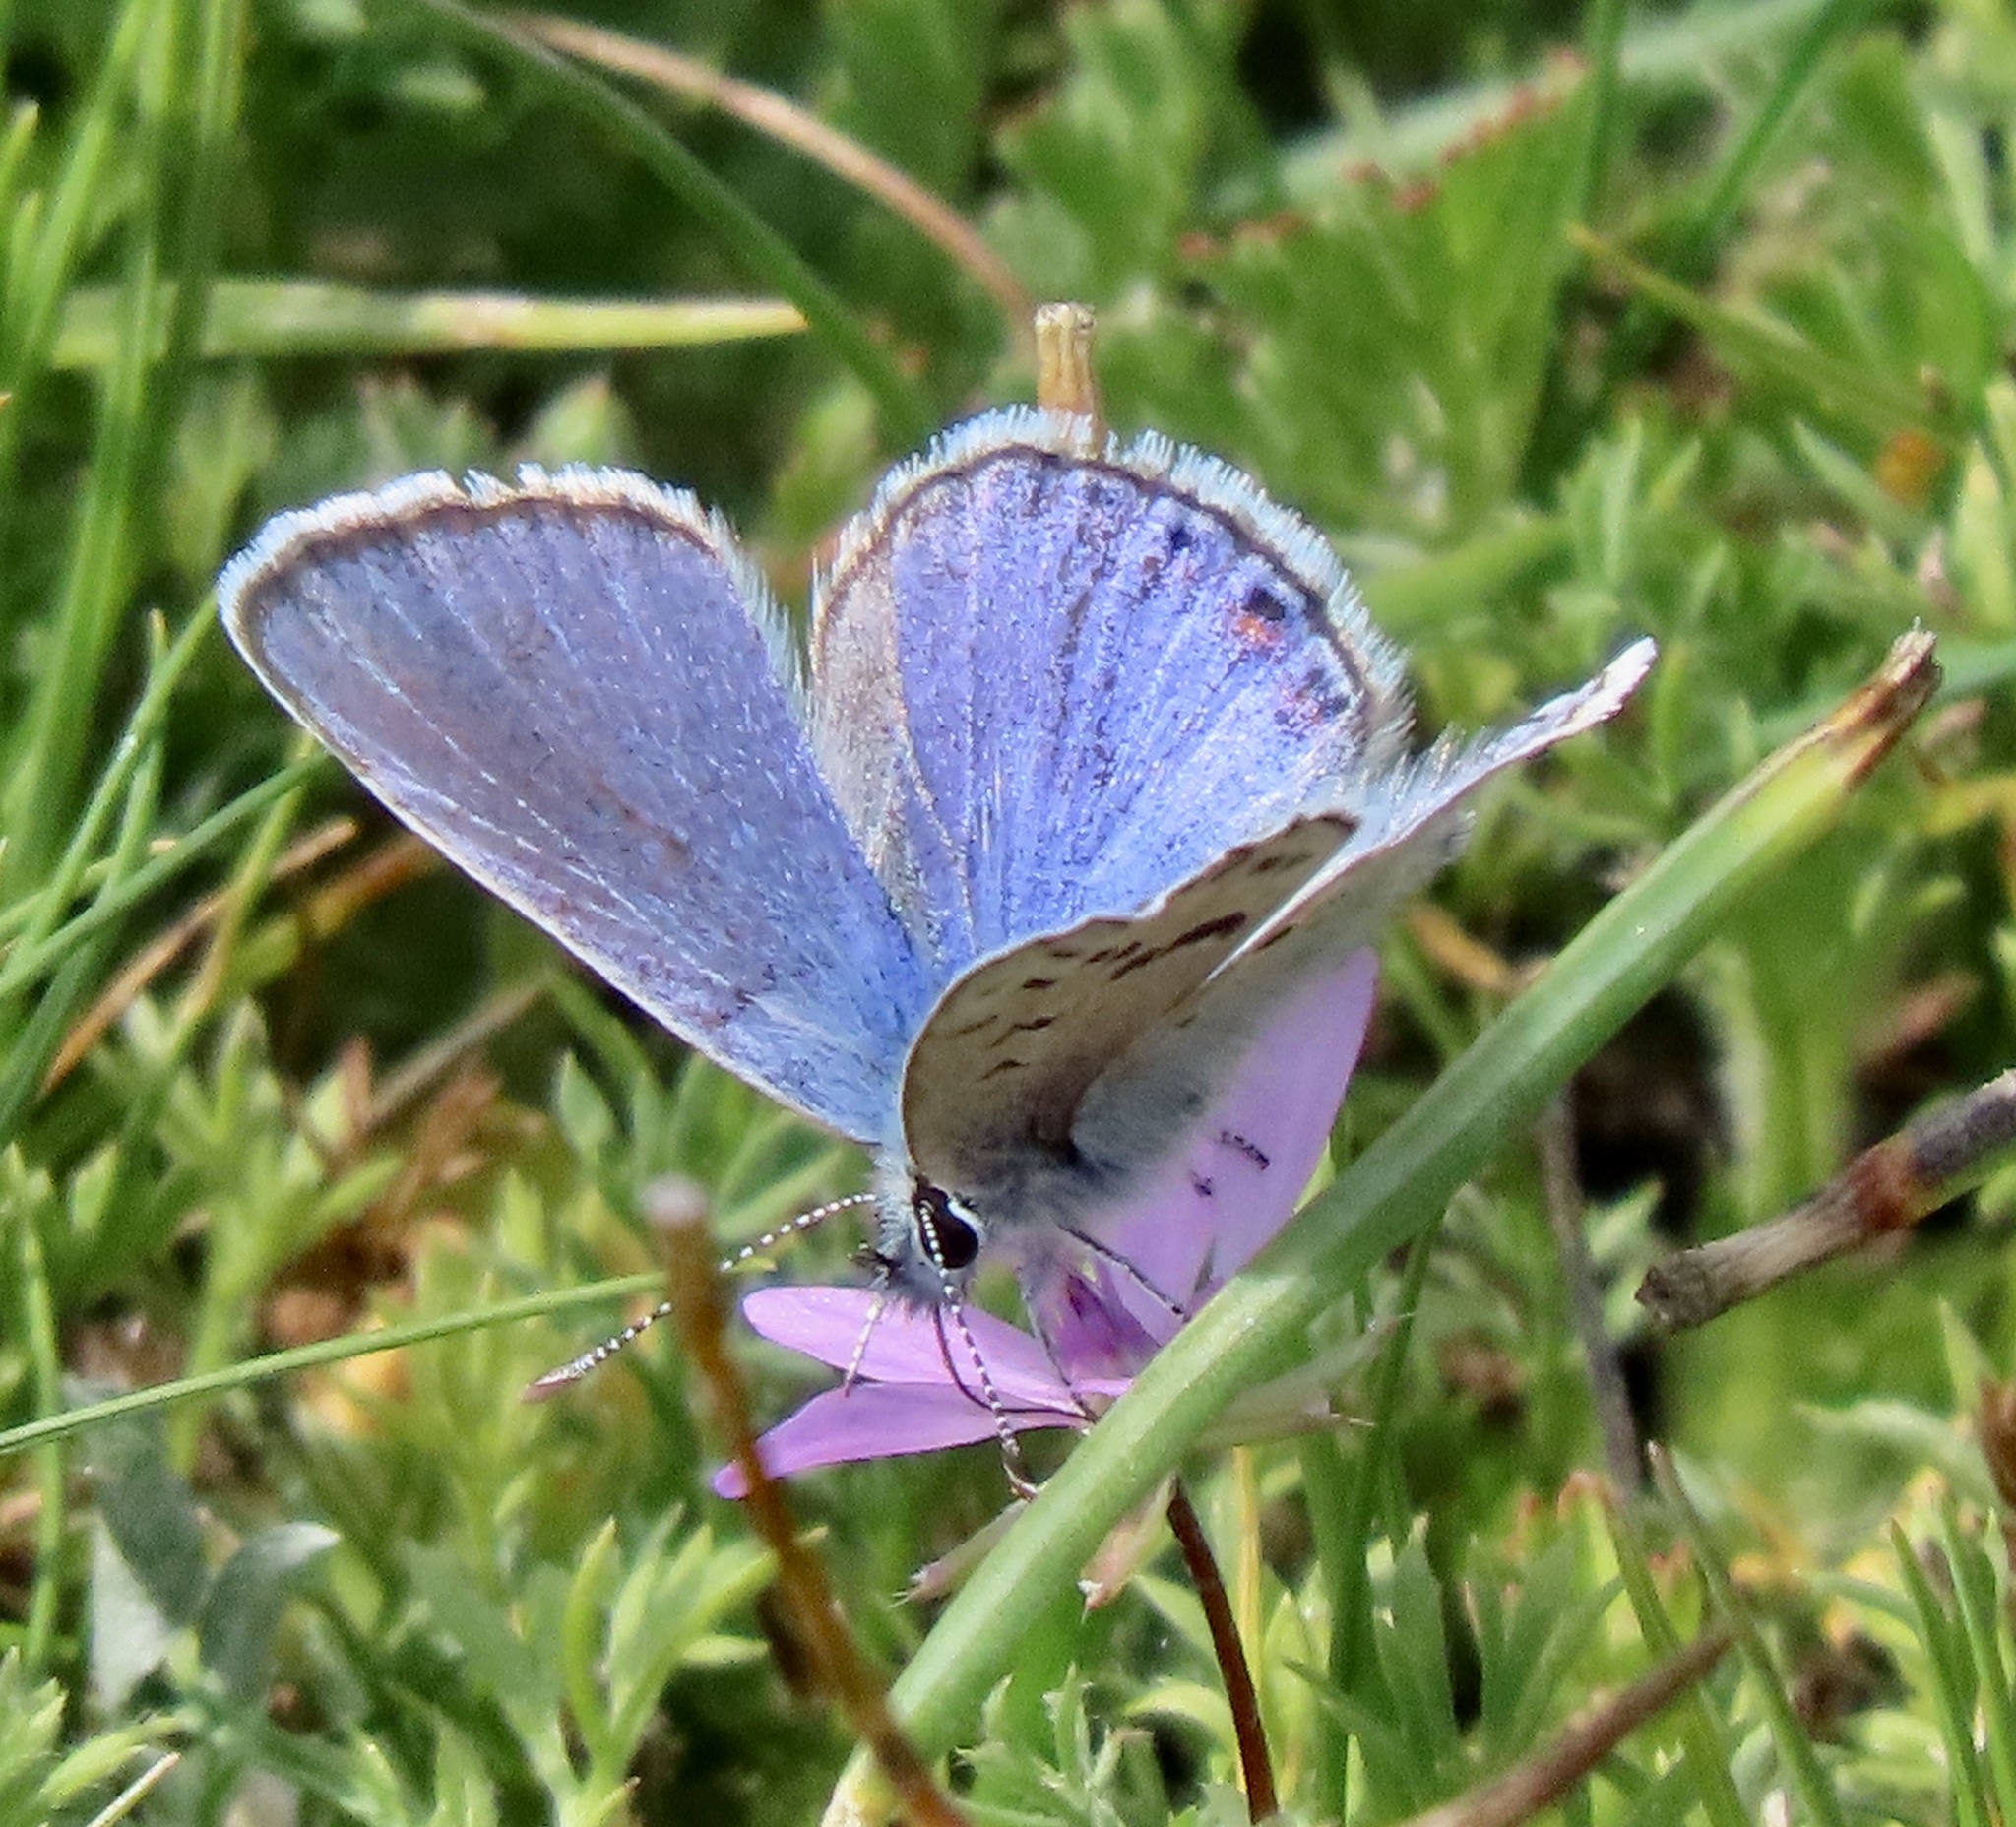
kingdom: Animalia
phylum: Arthropoda
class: Insecta
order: Lepidoptera
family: Lycaenidae
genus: Icaricia
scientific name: Icaricia acmon
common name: Acmon blue
